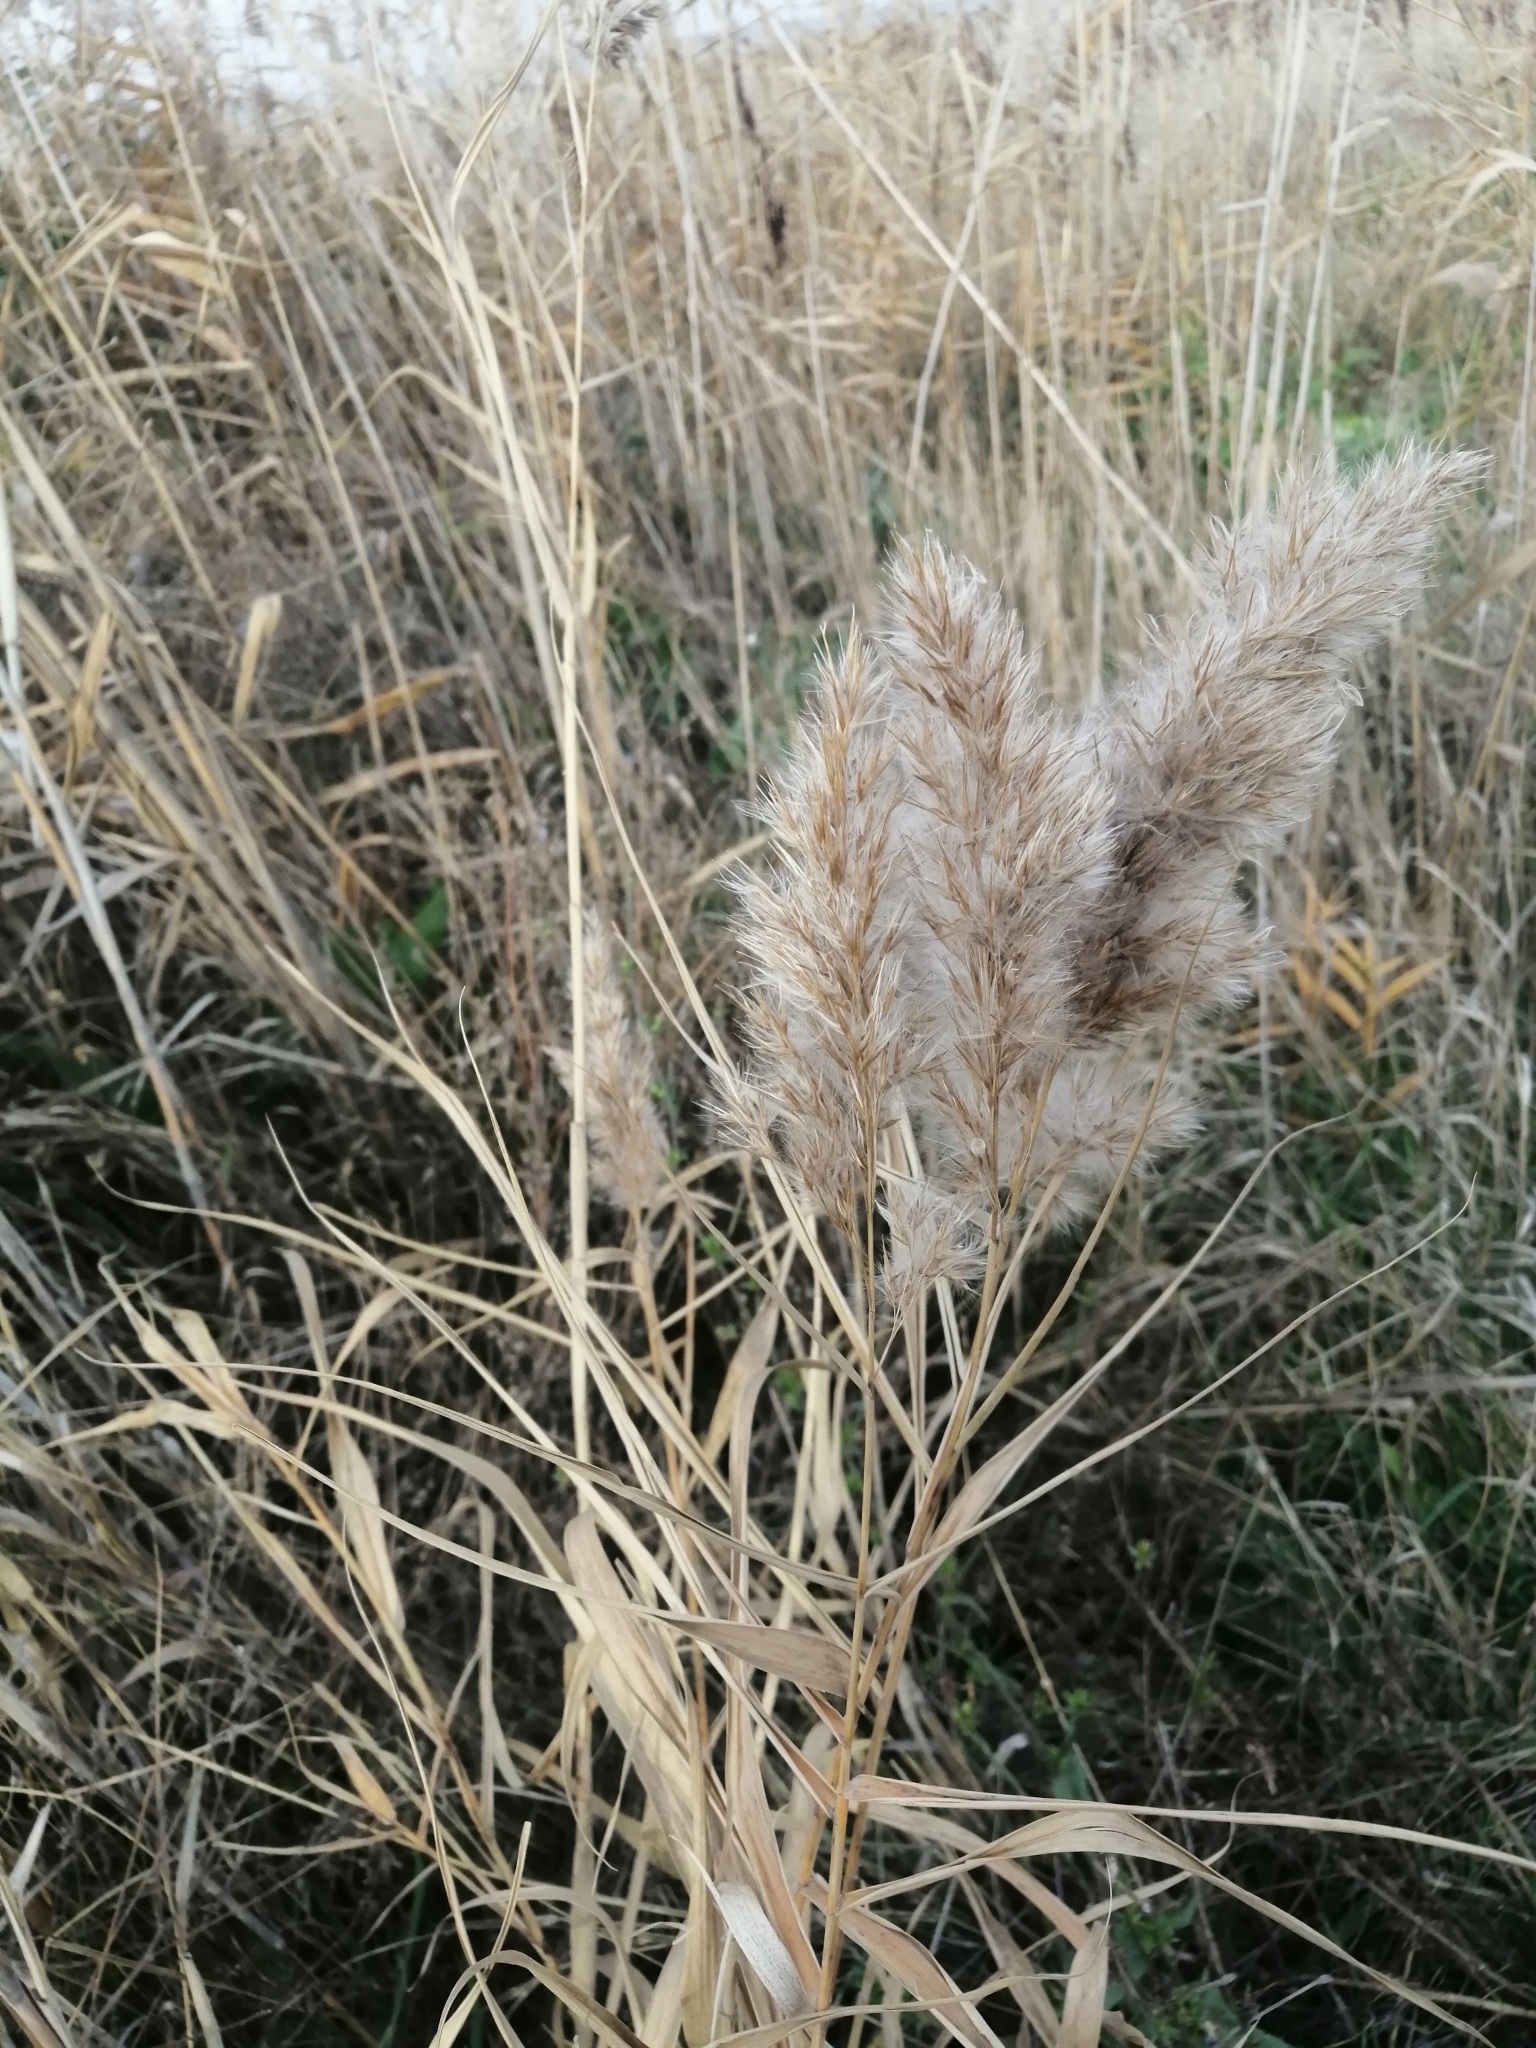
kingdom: Plantae
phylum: Tracheophyta
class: Liliopsida
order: Poales
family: Poaceae
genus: Phragmites
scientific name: Phragmites australis
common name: Common reed
